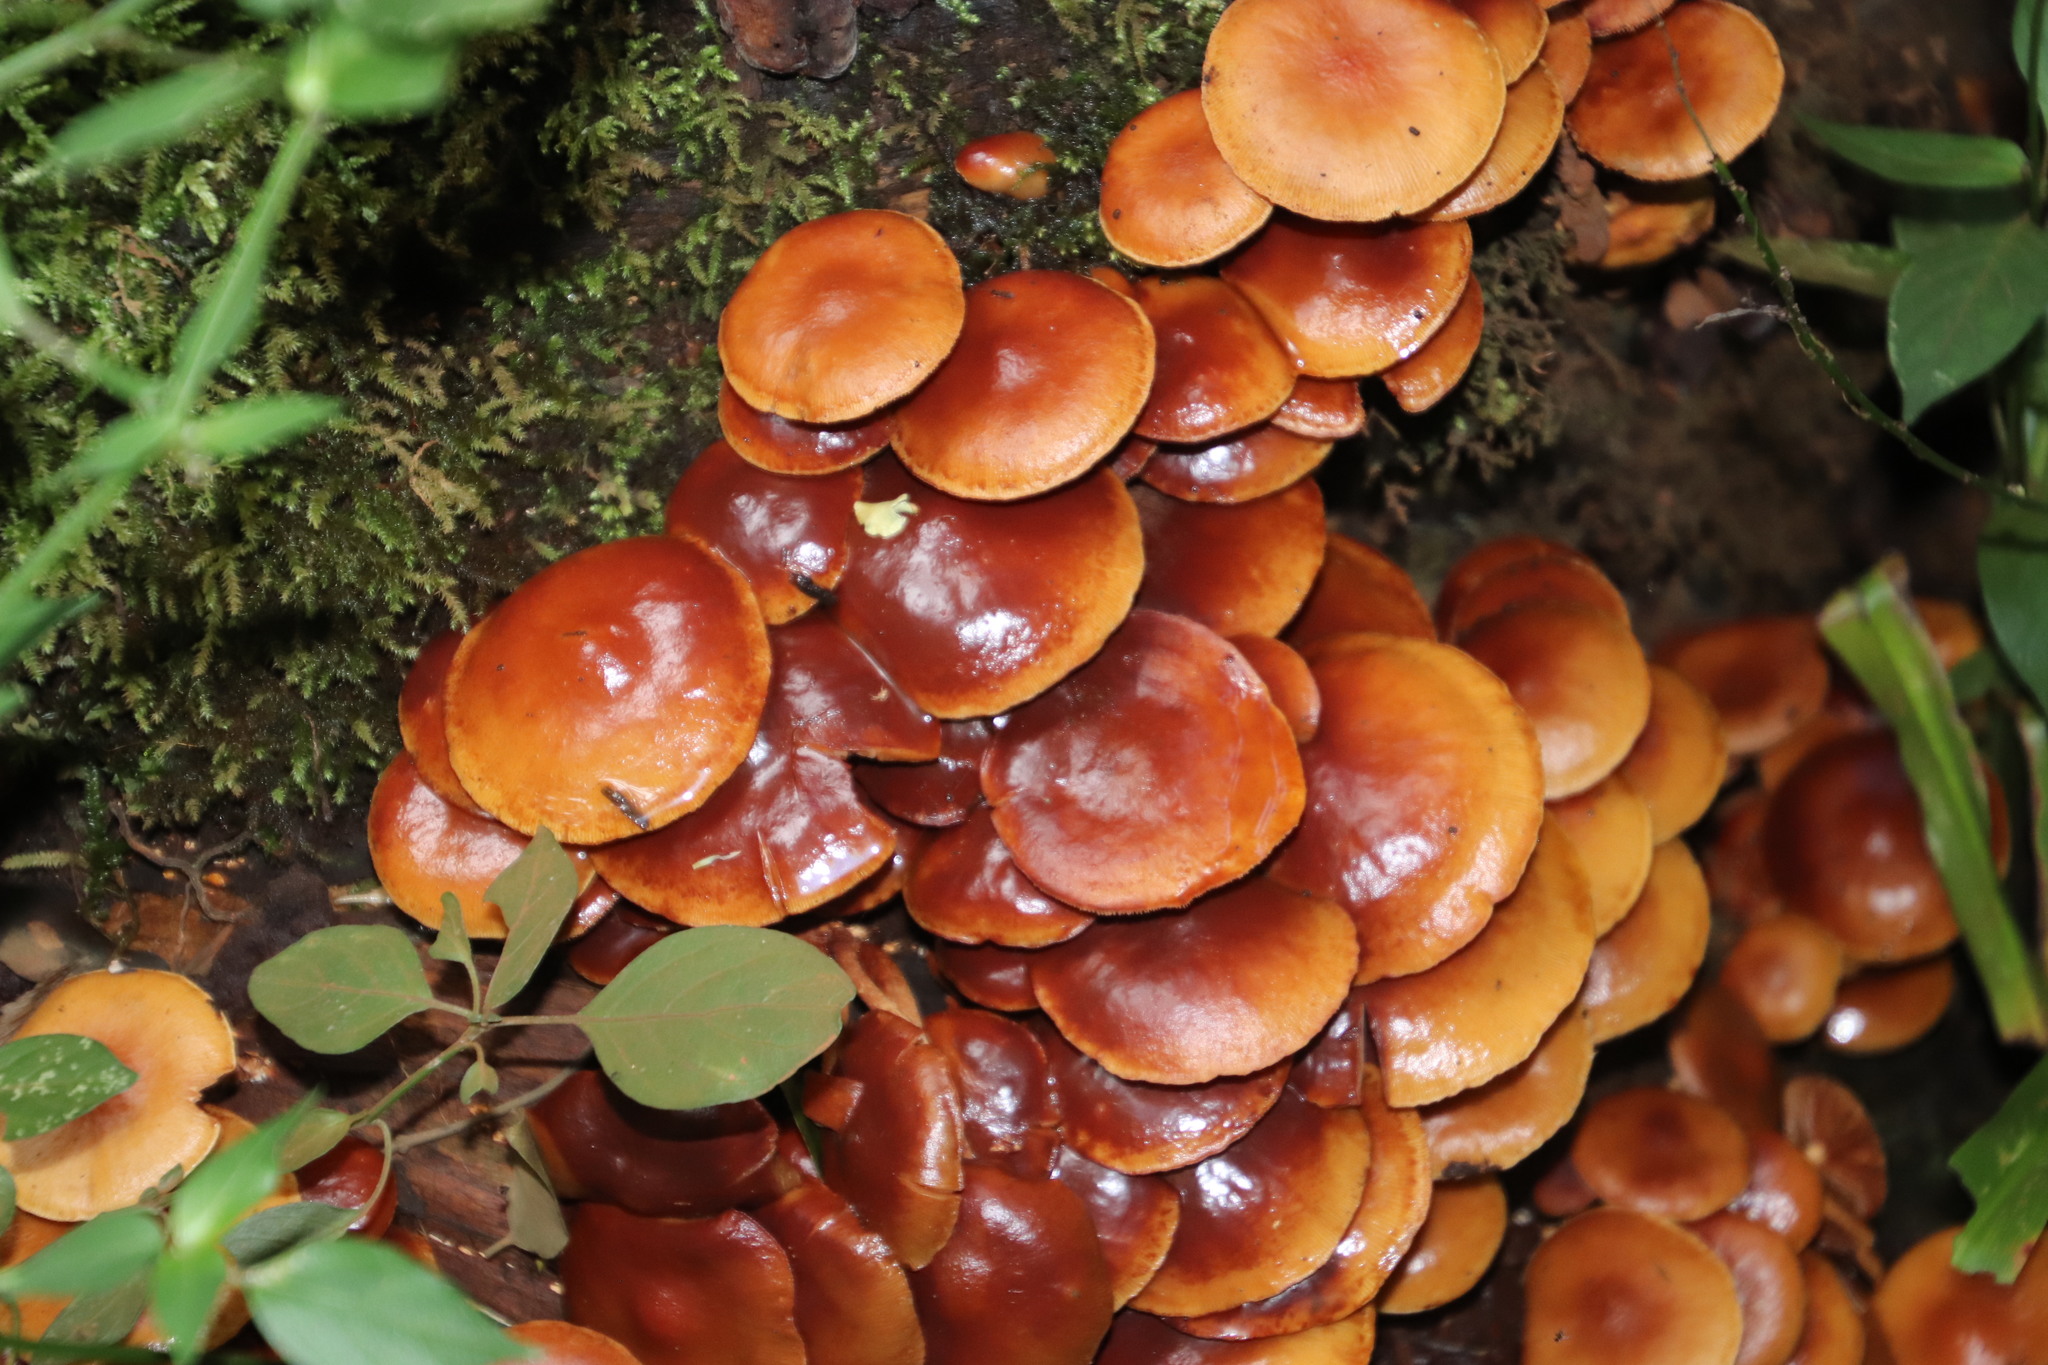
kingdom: Fungi
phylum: Basidiomycota
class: Agaricomycetes
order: Agaricales
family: Hymenogastraceae
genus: Gymnopilus
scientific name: Gymnopilus penetrans
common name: Common rustgill
